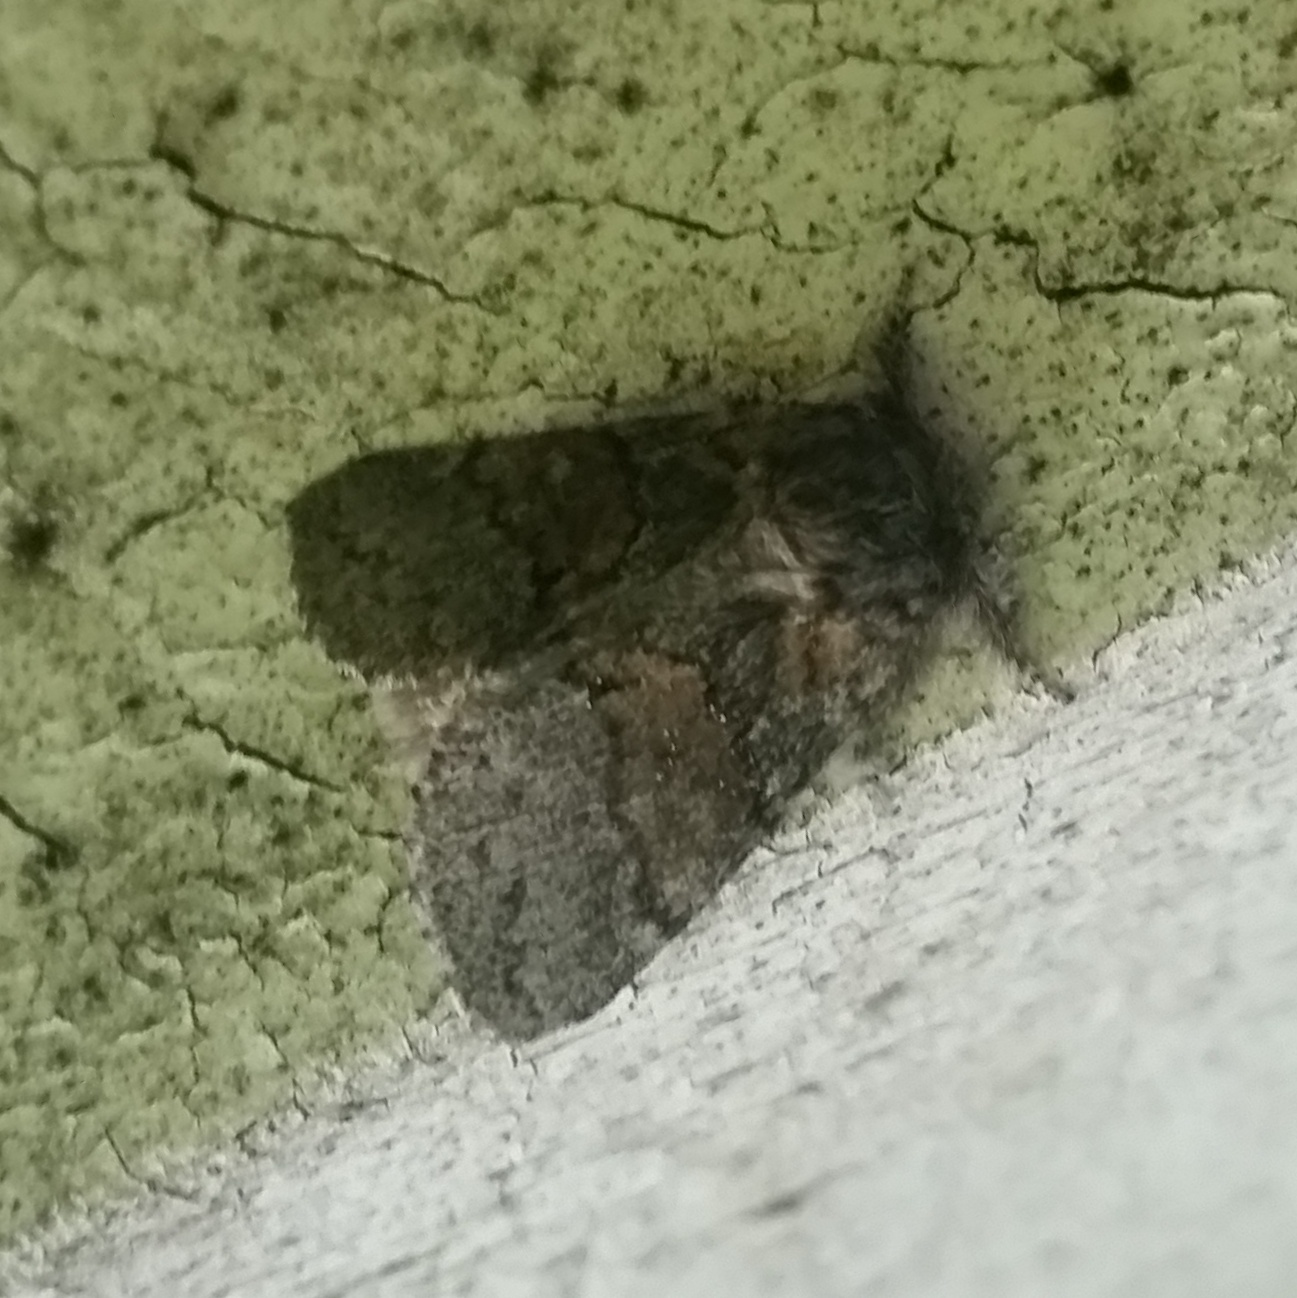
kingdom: Animalia
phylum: Arthropoda
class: Insecta
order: Lepidoptera
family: Notodontidae
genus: Gluphisia
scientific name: Gluphisia septentrionis
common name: Common gluphisia
